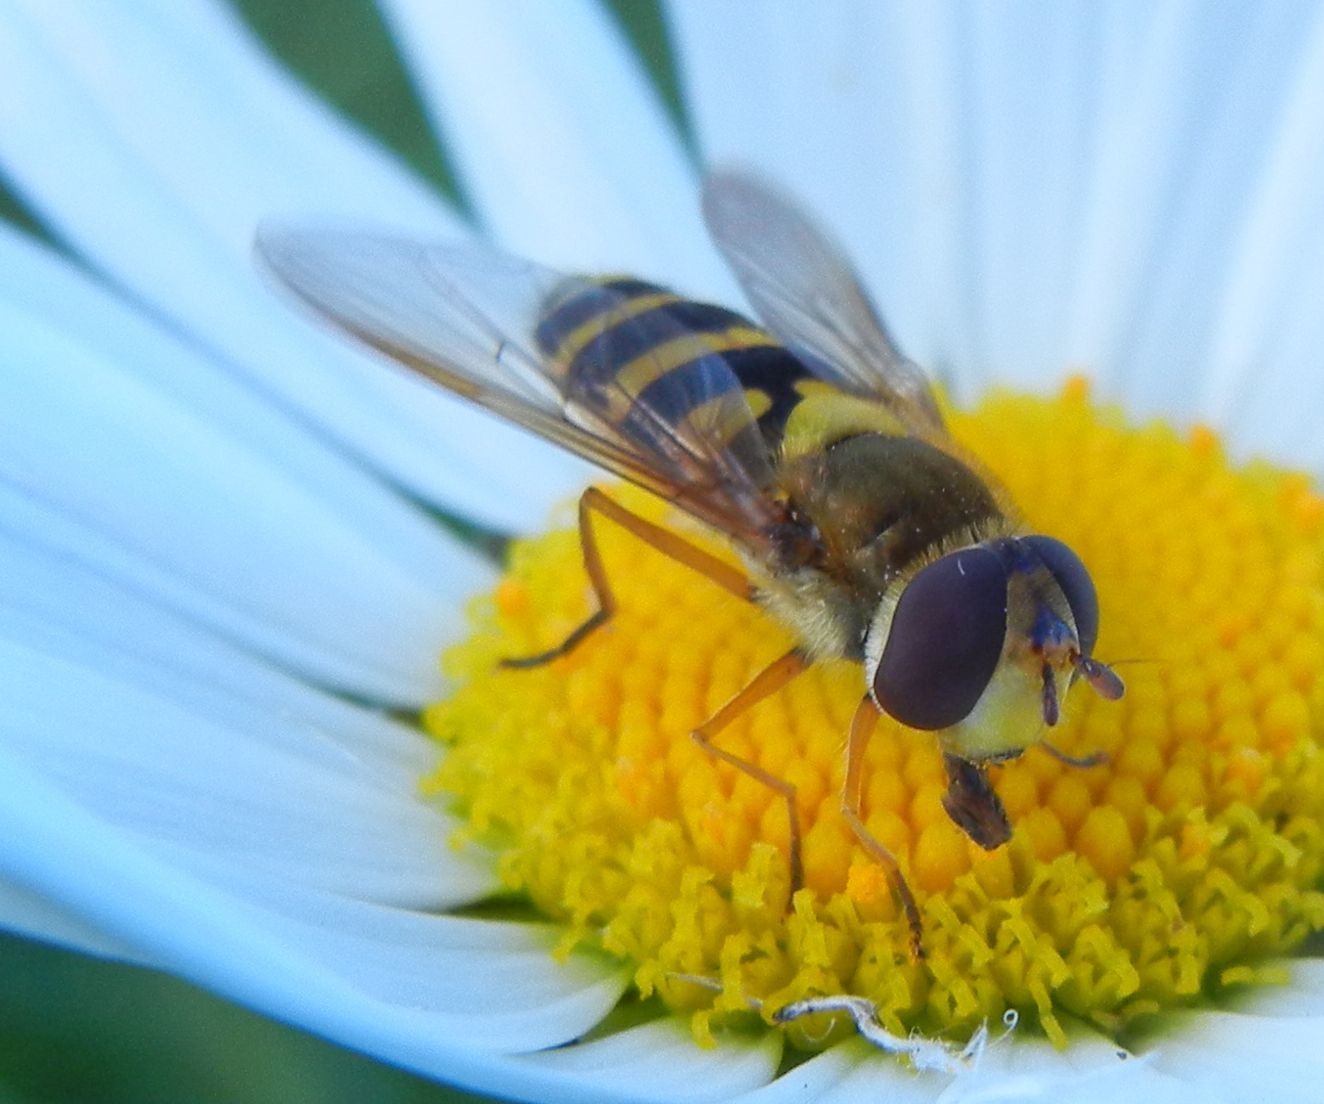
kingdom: Animalia
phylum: Arthropoda
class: Insecta
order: Diptera
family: Syrphidae
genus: Syrphus
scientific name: Syrphus ribesii
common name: Common flower fly
